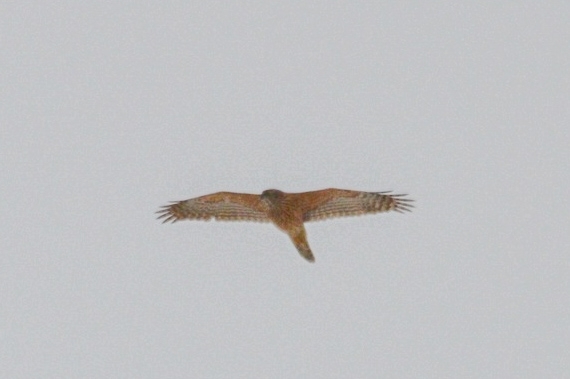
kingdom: Animalia
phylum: Chordata
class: Aves
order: Accipitriformes
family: Accipitridae
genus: Accipiter
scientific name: Accipiter gentilis
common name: Northern goshawk
